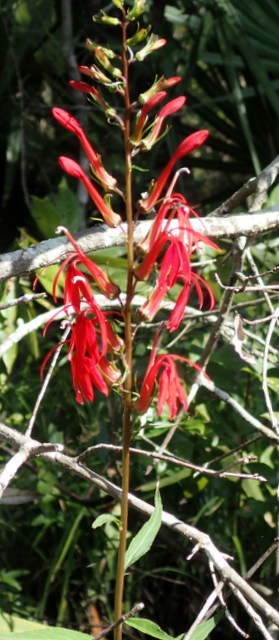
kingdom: Plantae
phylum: Tracheophyta
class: Magnoliopsida
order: Asterales
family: Campanulaceae
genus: Lobelia
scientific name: Lobelia cardinalis
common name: Cardinal flower
